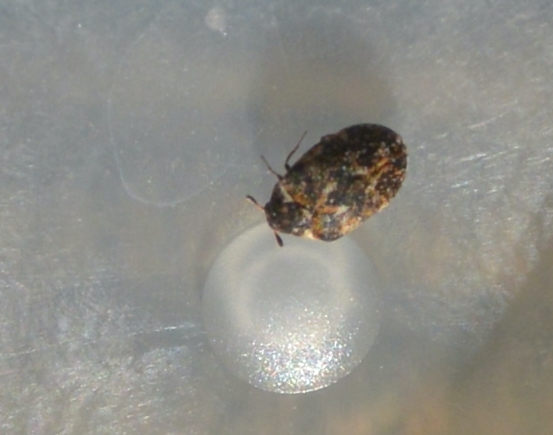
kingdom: Animalia
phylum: Arthropoda
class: Insecta
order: Coleoptera
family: Dermestidae
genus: Anthrenus
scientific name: Anthrenus museorum
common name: Museum beetle
